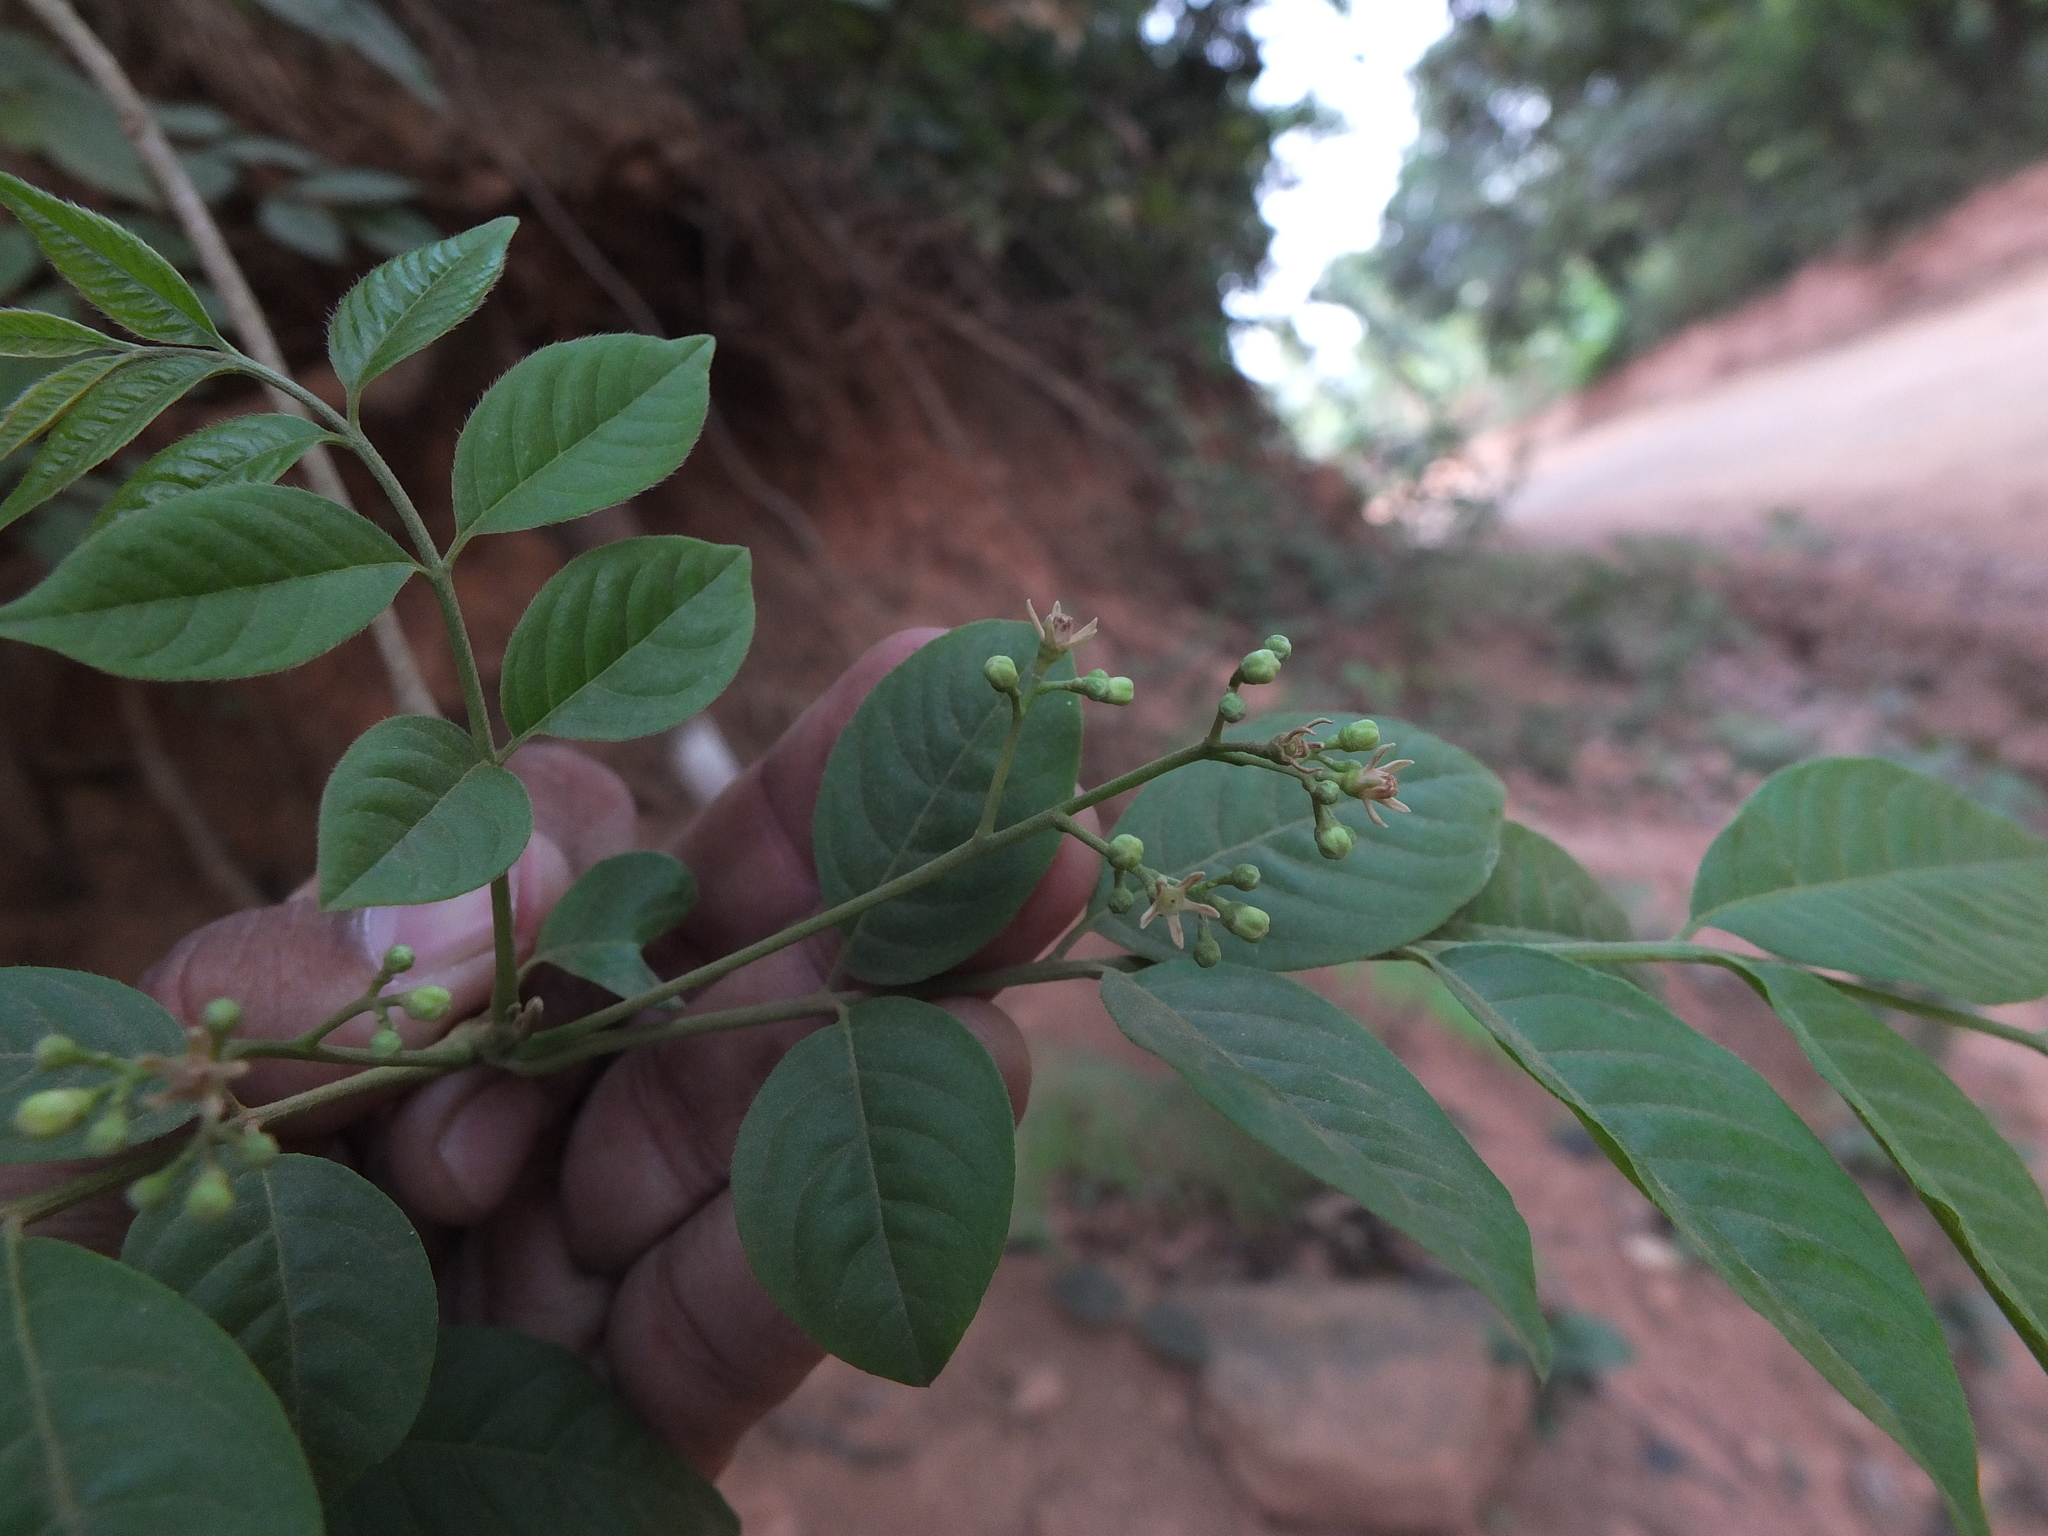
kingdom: Plantae
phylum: Tracheophyta
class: Magnoliopsida
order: Sapindales
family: Meliaceae
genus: Cipadessa
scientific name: Cipadessa baccifera
